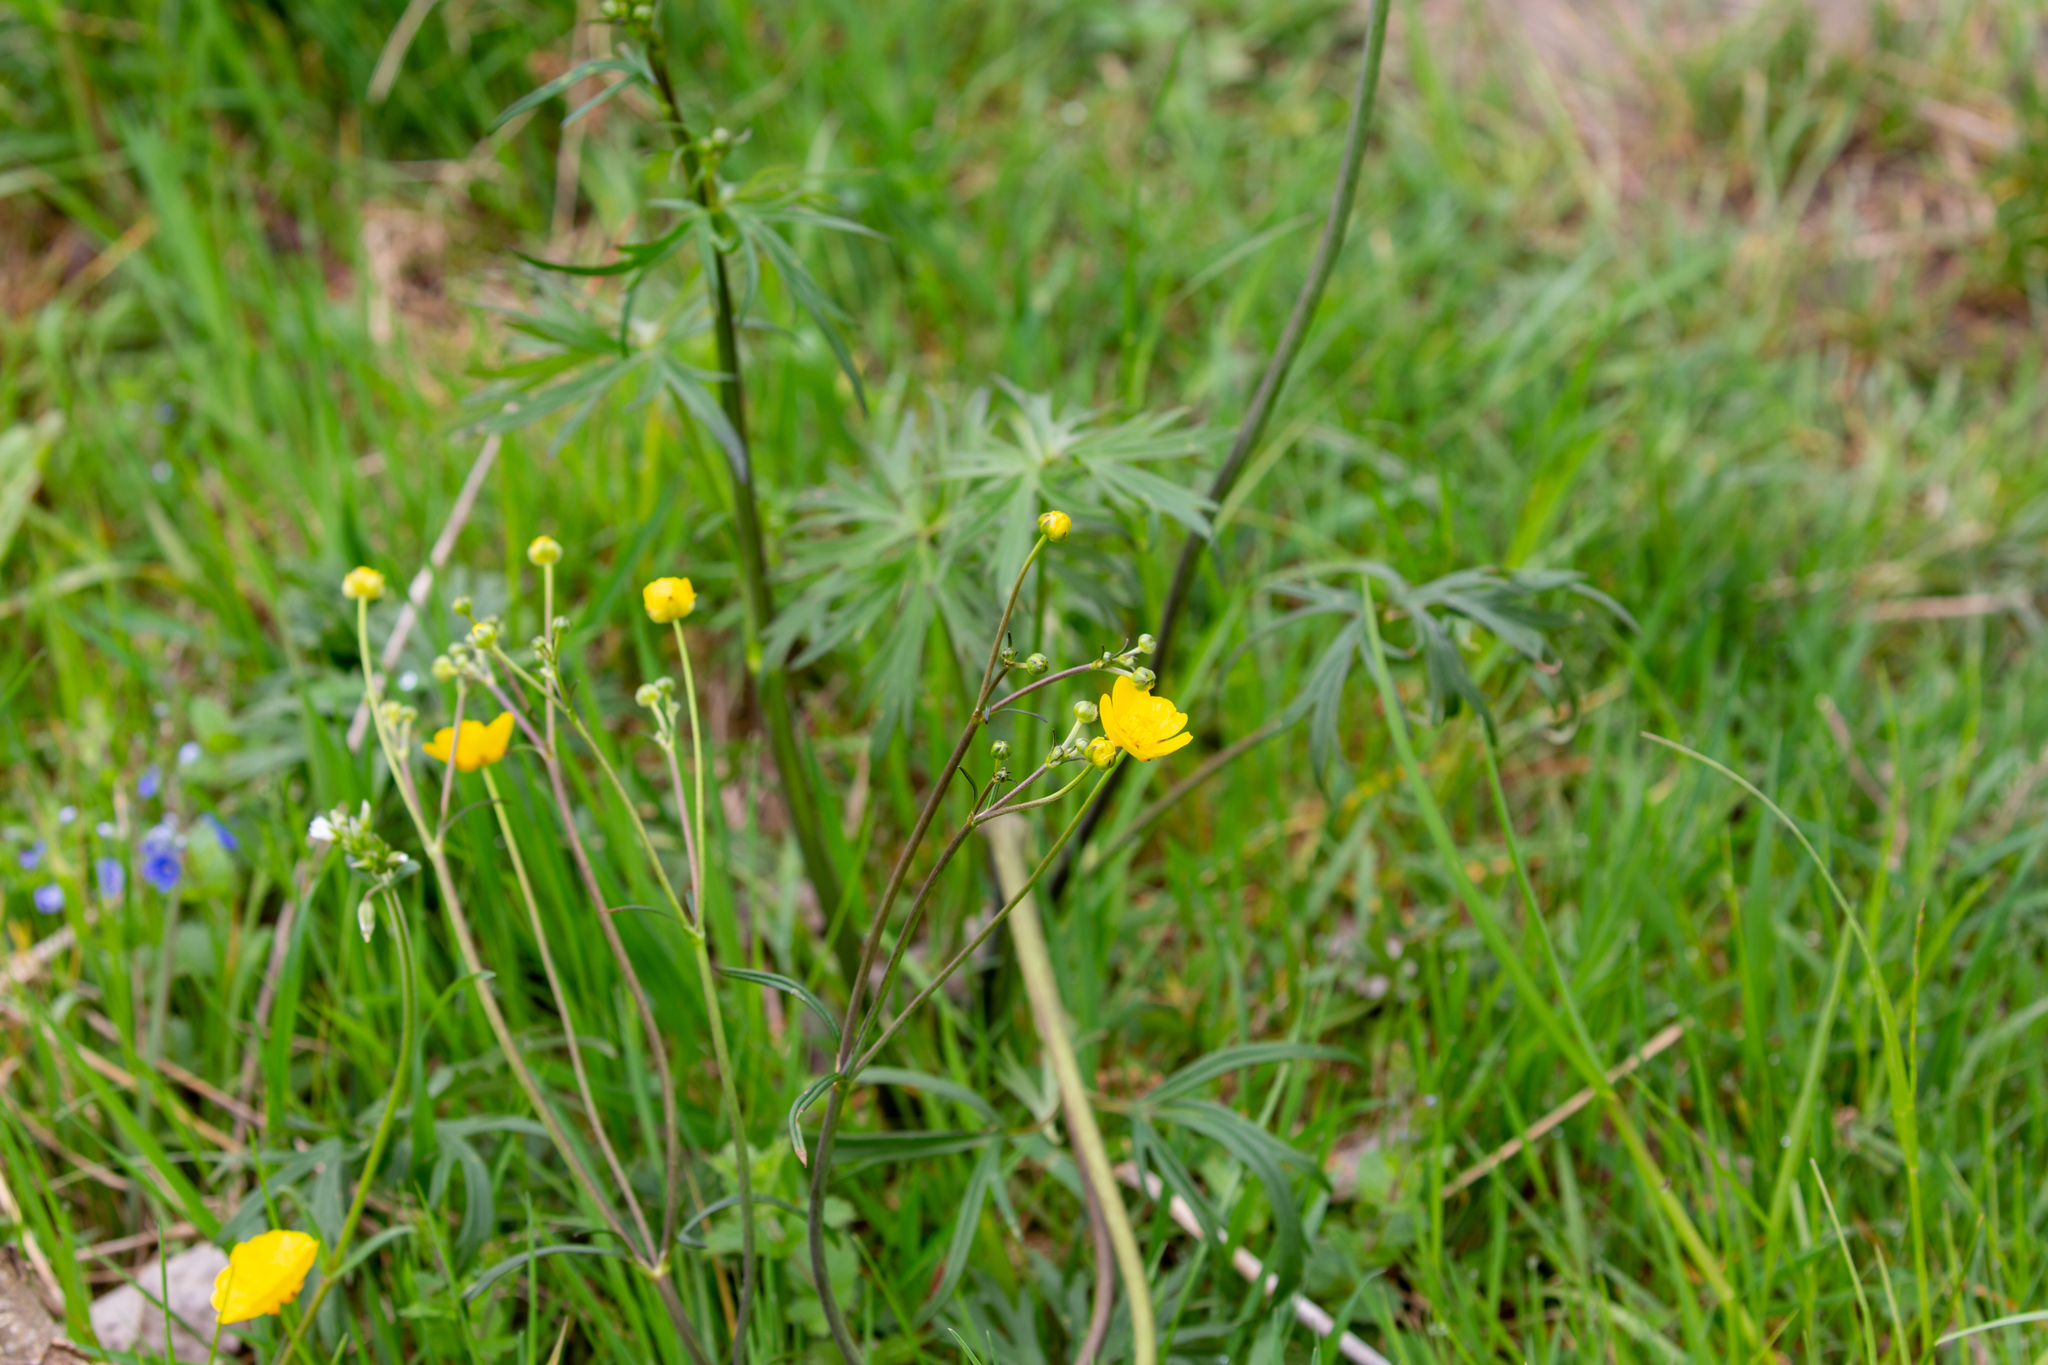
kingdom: Plantae
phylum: Tracheophyta
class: Magnoliopsida
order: Ranunculales
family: Ranunculaceae
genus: Ranunculus
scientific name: Ranunculus acris
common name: Meadow buttercup
